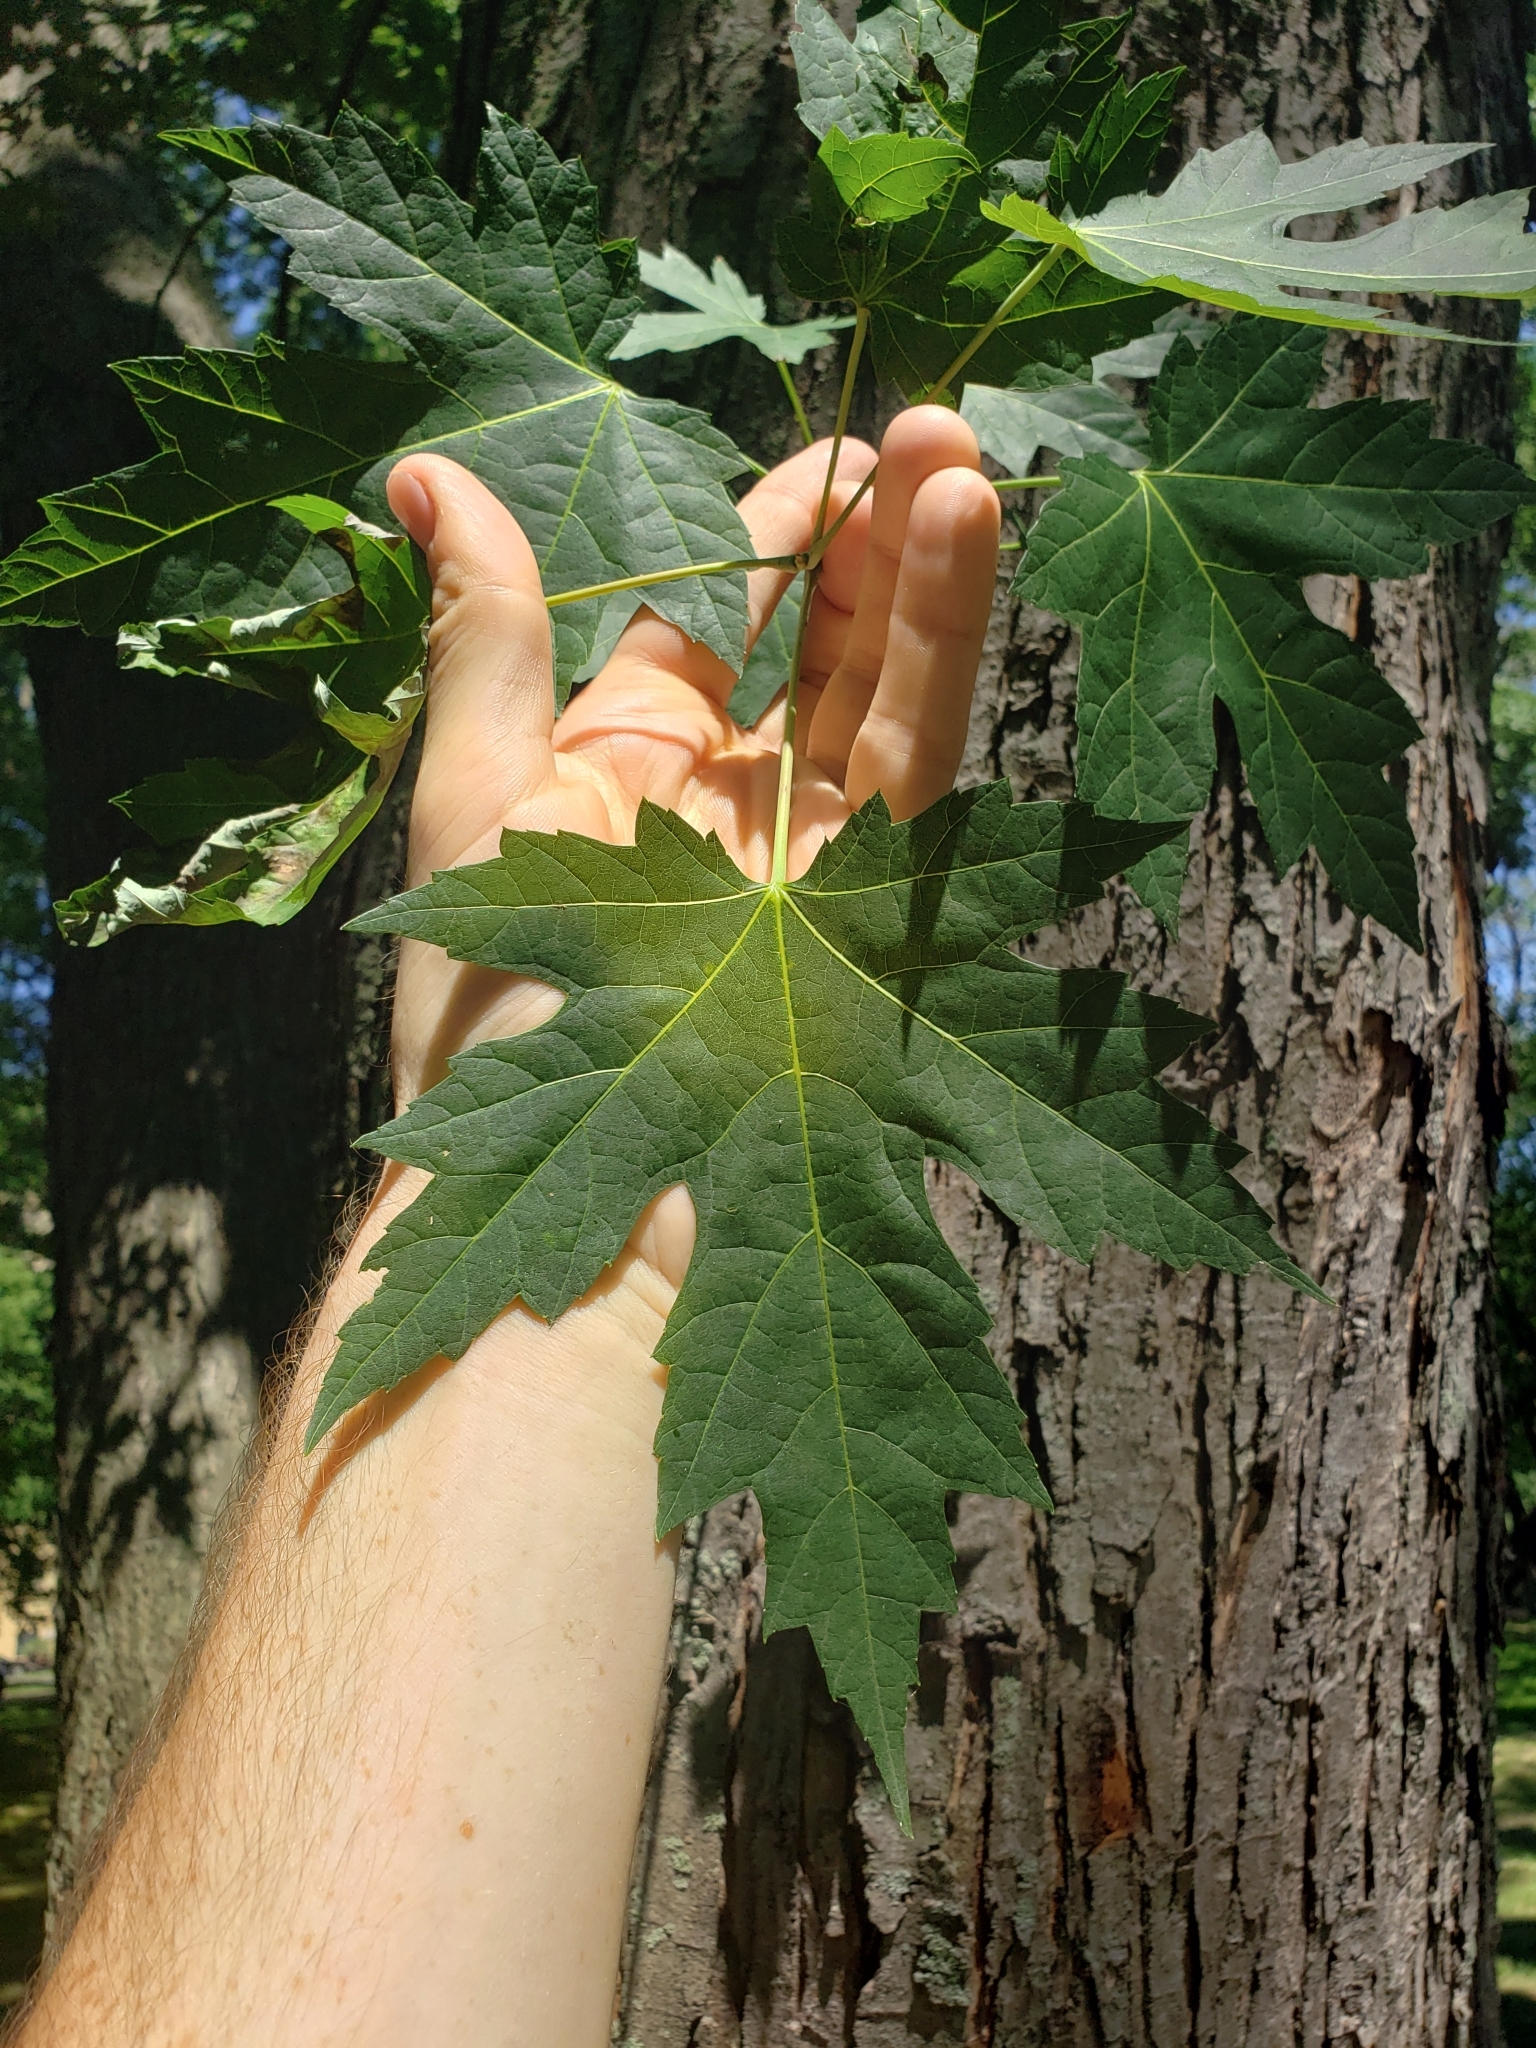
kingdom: Plantae
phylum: Tracheophyta
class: Magnoliopsida
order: Sapindales
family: Sapindaceae
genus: Acer
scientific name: Acer saccharinum
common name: Silver maple
